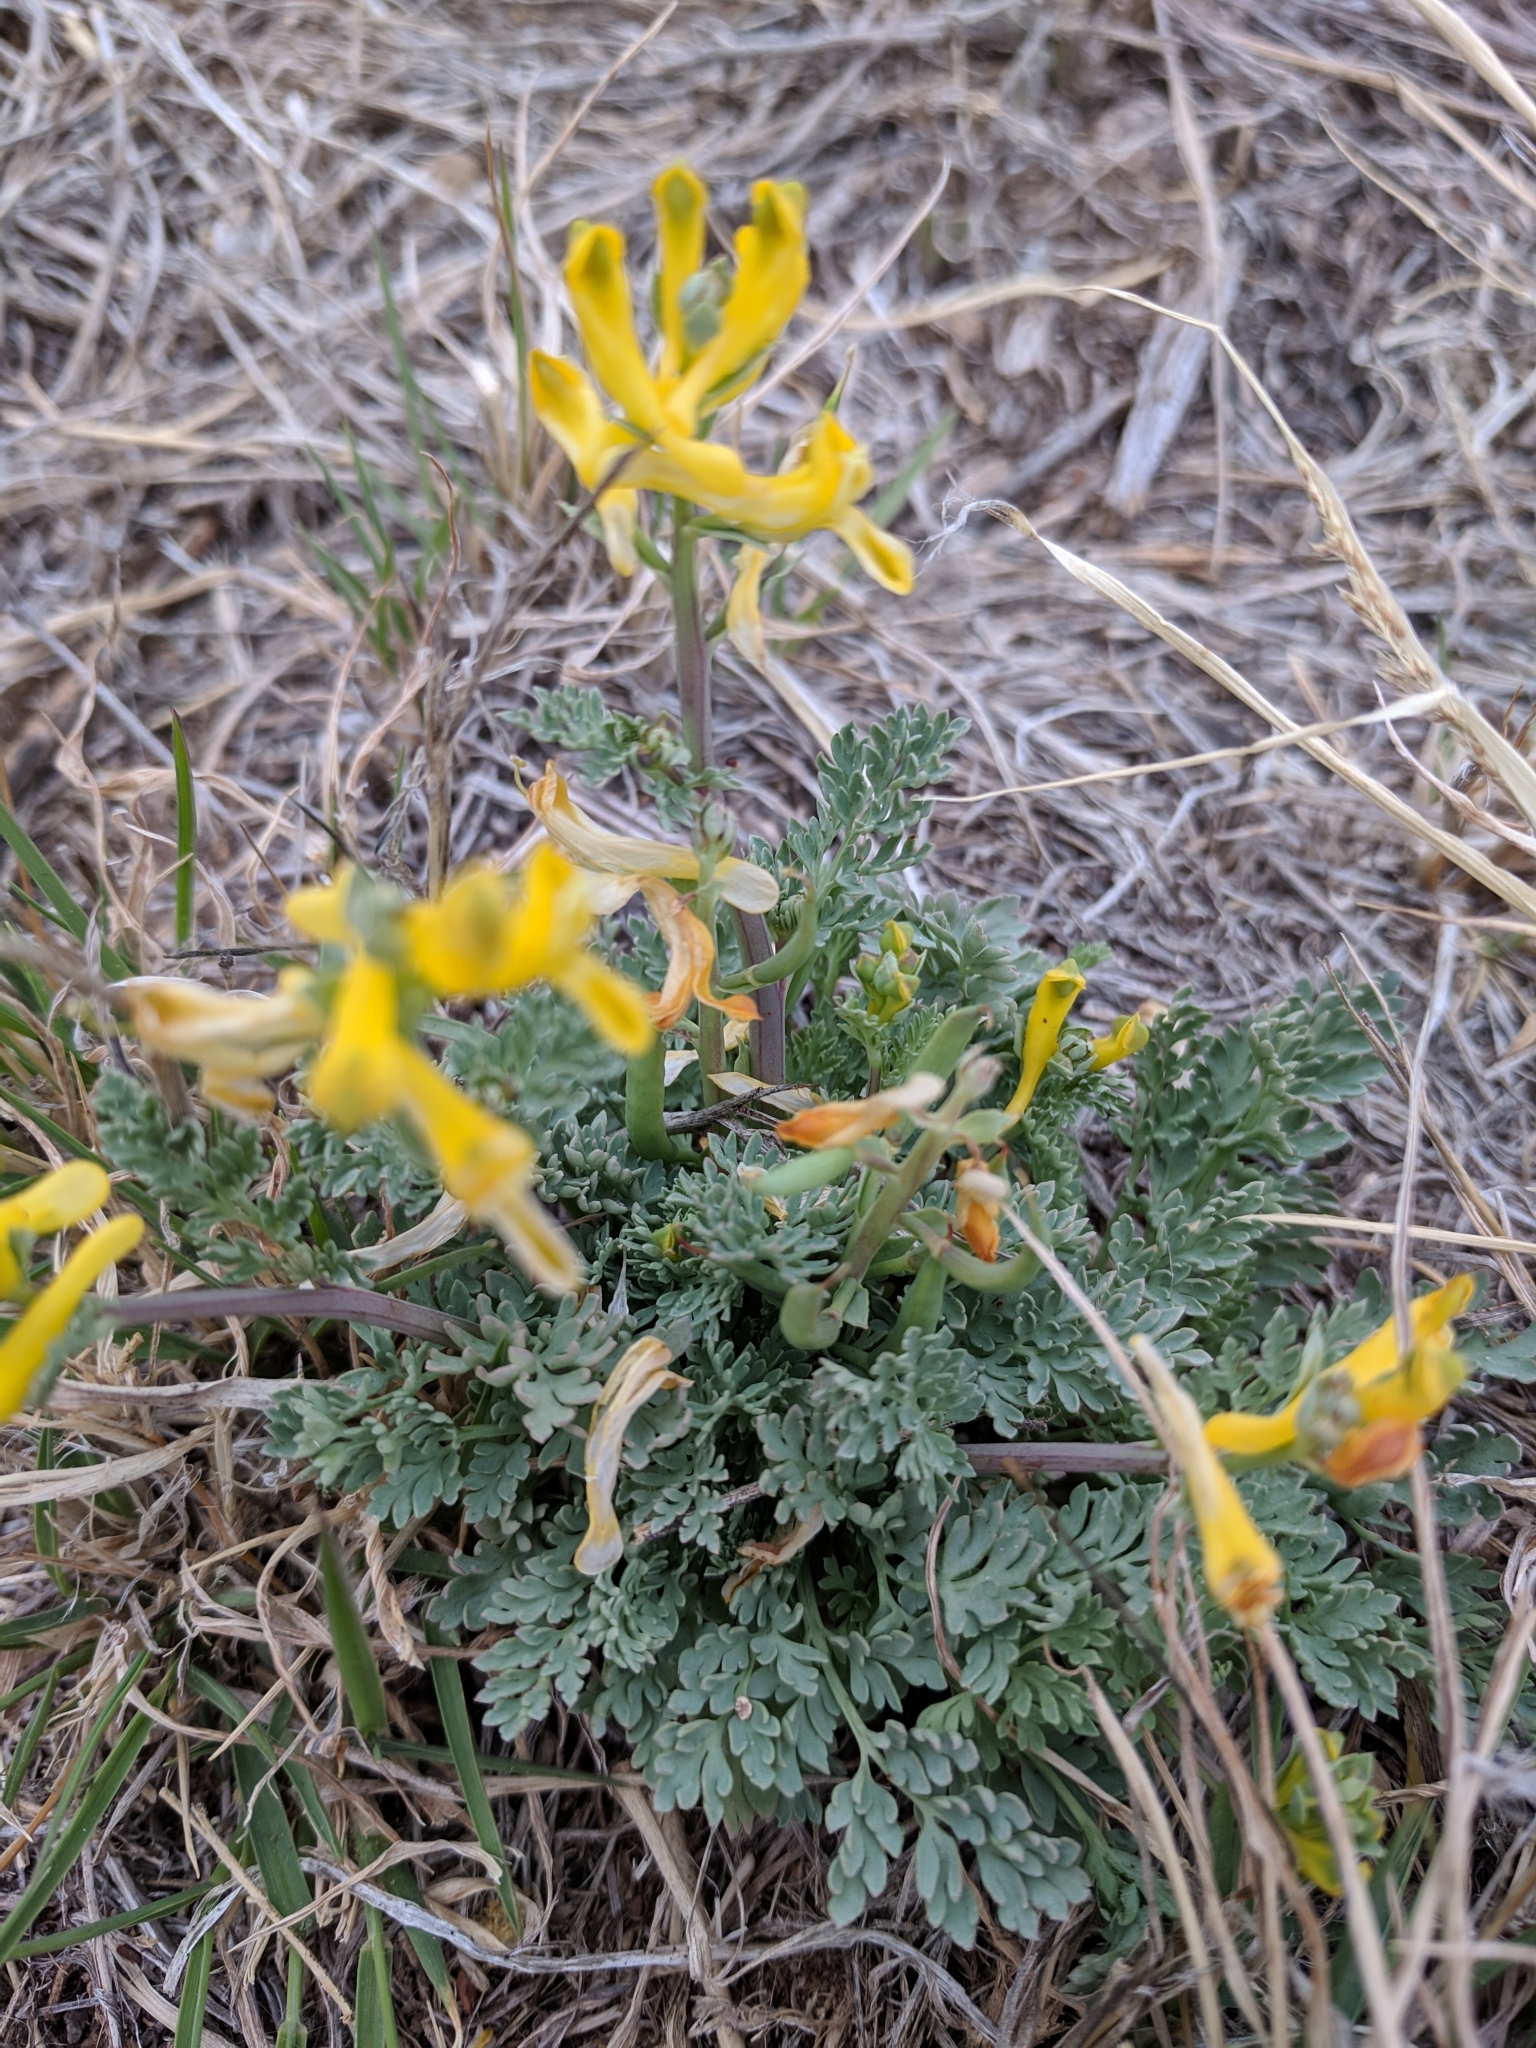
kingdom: Plantae
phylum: Tracheophyta
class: Magnoliopsida
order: Ranunculales
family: Papaveraceae
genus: Corydalis
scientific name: Corydalis aurea
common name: Golden corydalis
